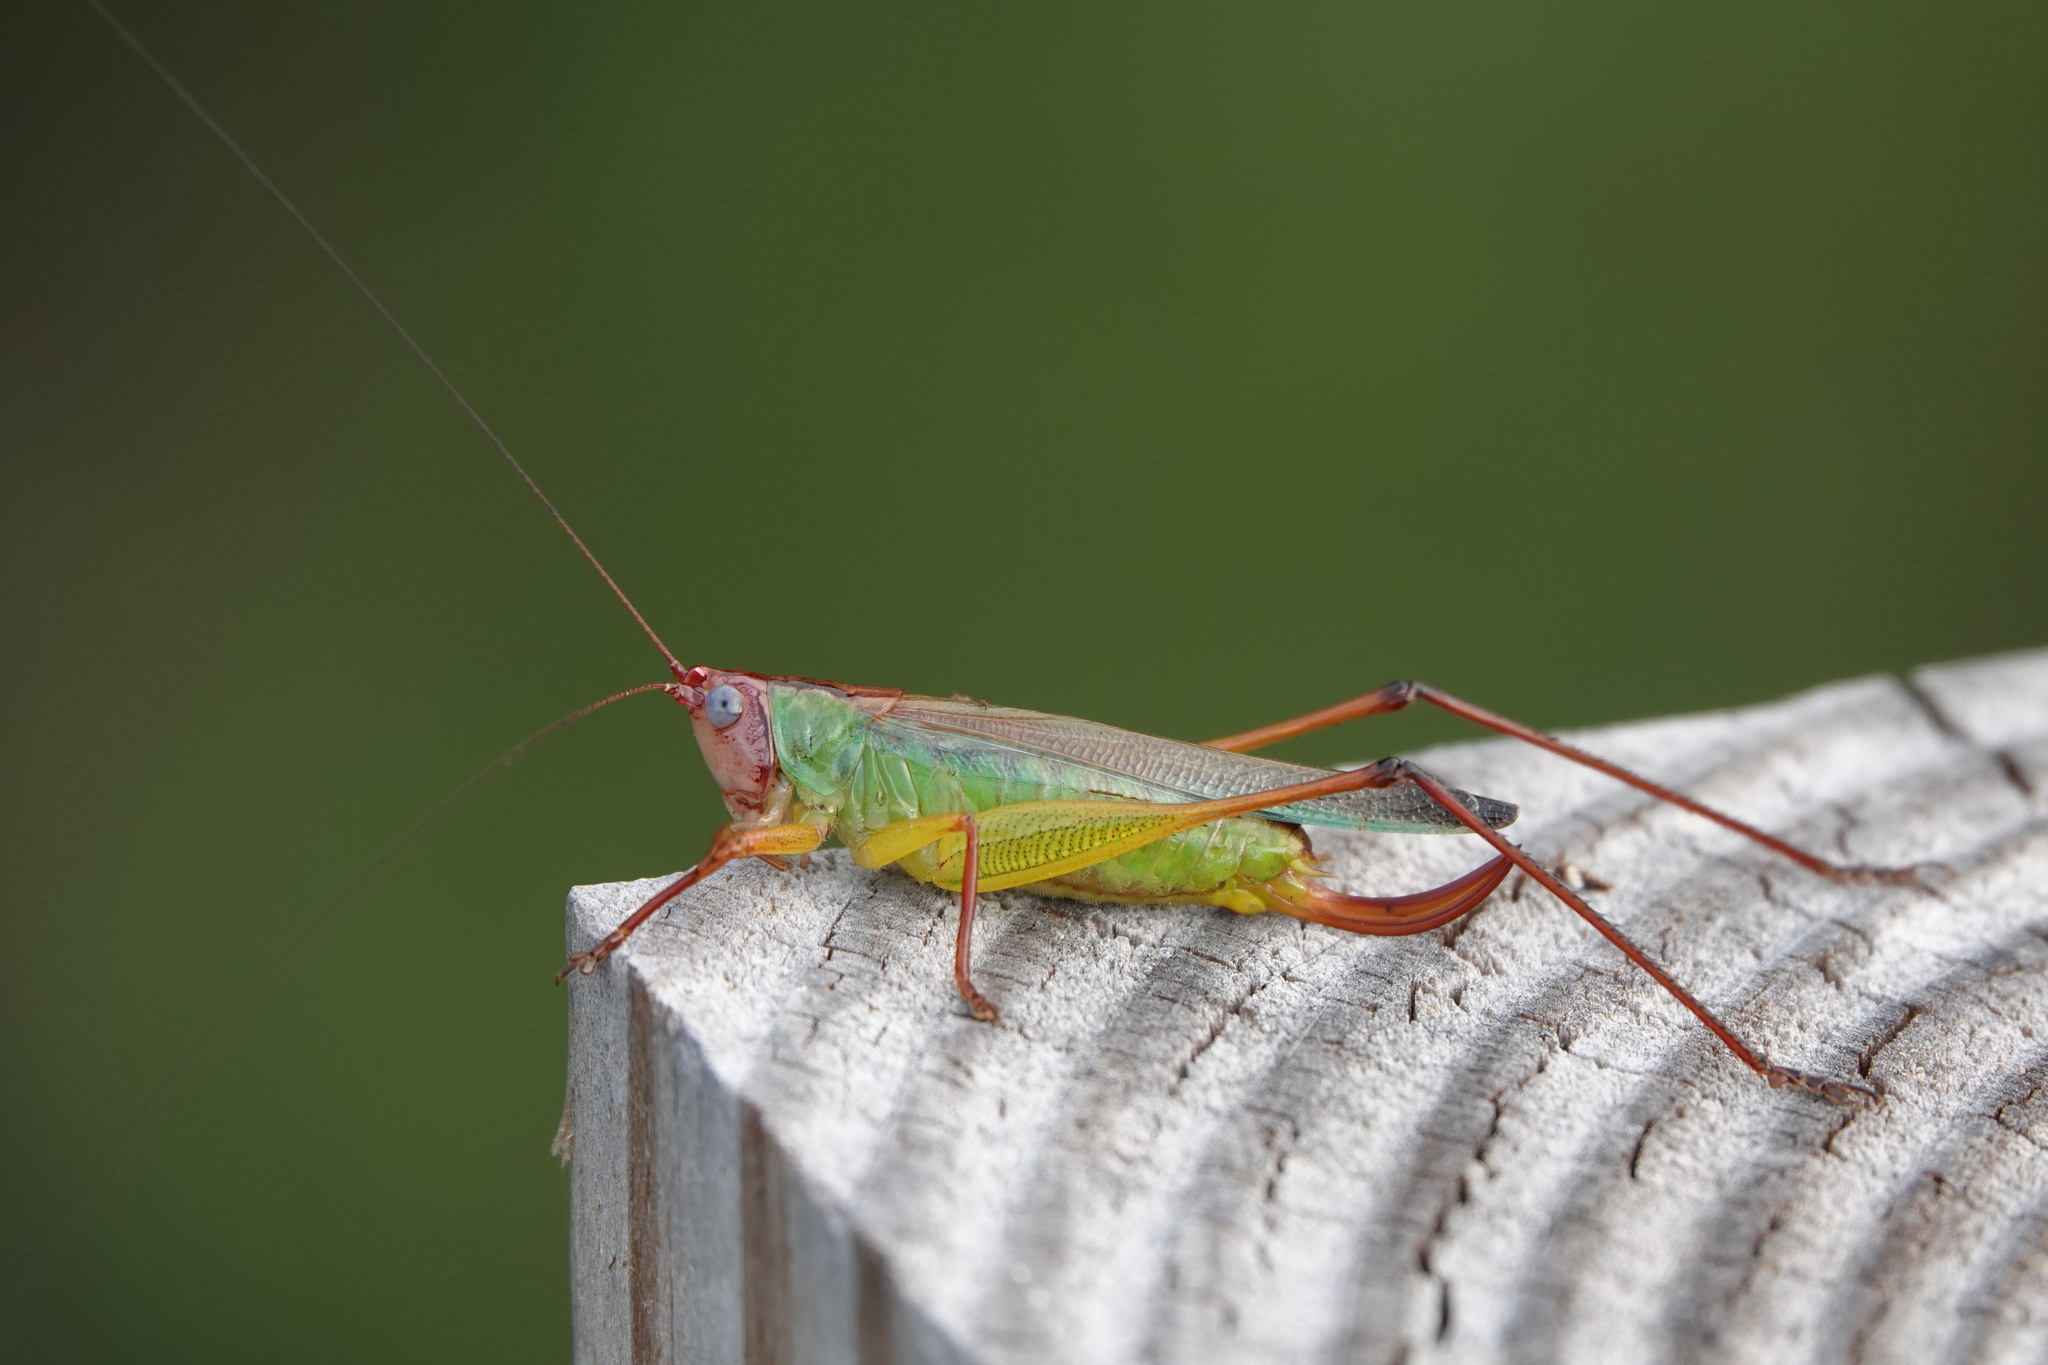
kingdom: Animalia
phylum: Arthropoda
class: Insecta
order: Orthoptera
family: Tettigoniidae
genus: Orchelimum
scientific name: Orchelimum pulchellum
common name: Handsome meadow katydid
